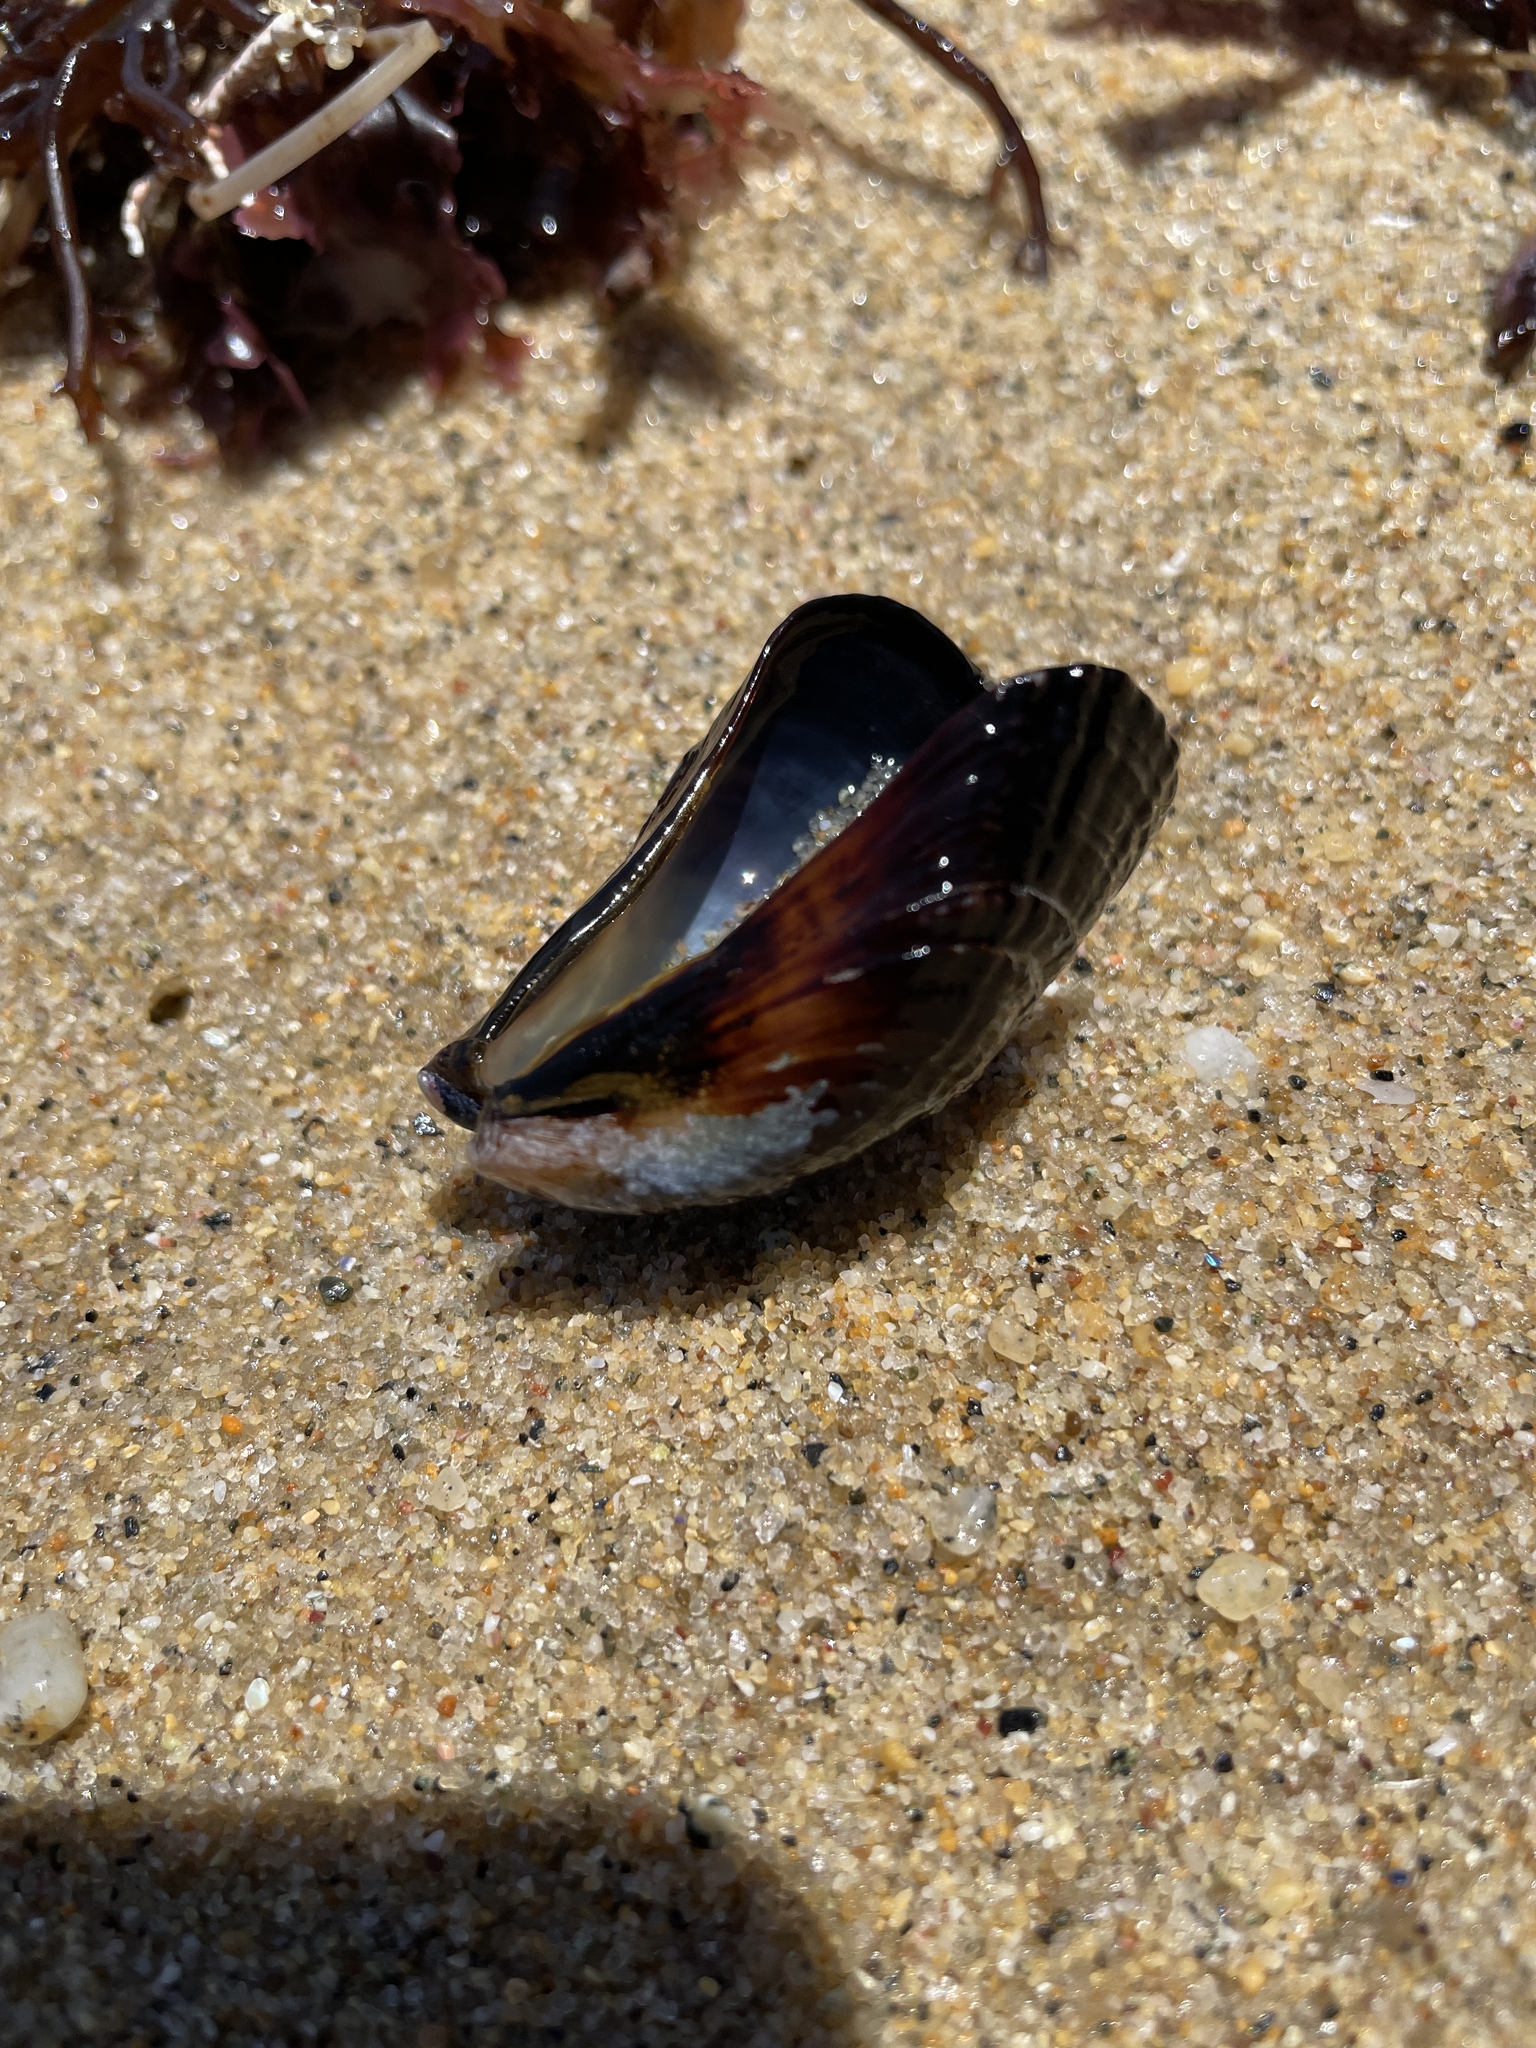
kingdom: Animalia
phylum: Mollusca
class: Bivalvia
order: Mytilida
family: Mytilidae
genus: Mytilus
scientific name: Mytilus californianus
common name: California mussel
